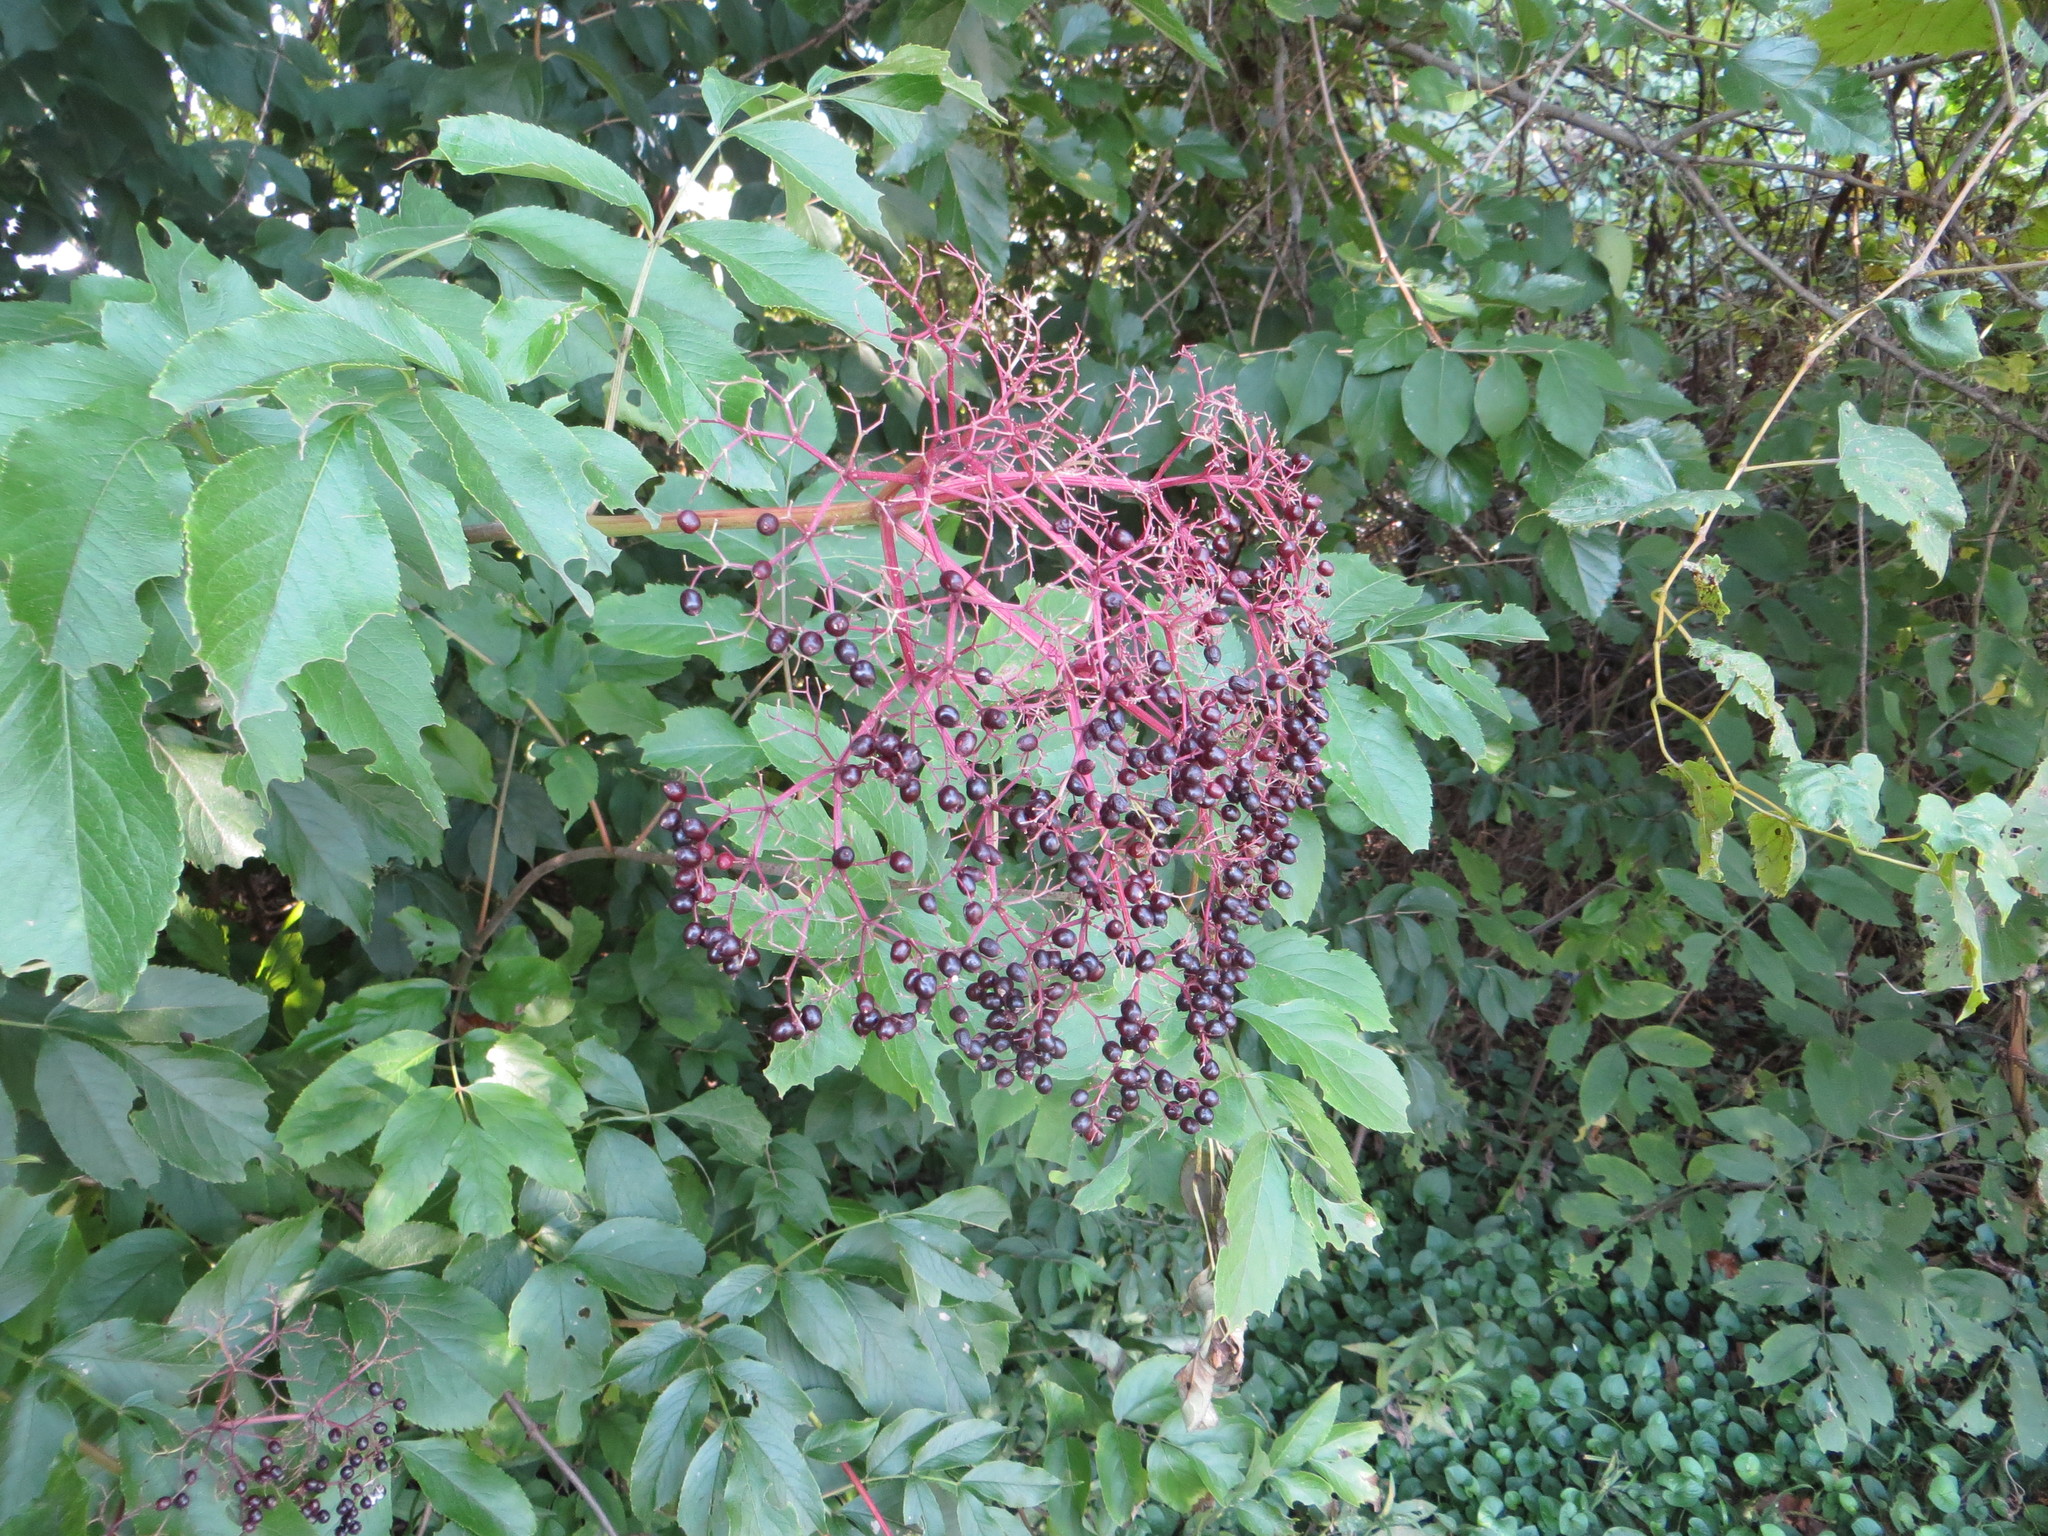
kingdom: Plantae
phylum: Tracheophyta
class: Magnoliopsida
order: Dipsacales
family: Viburnaceae
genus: Sambucus
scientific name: Sambucus canadensis
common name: American elder
